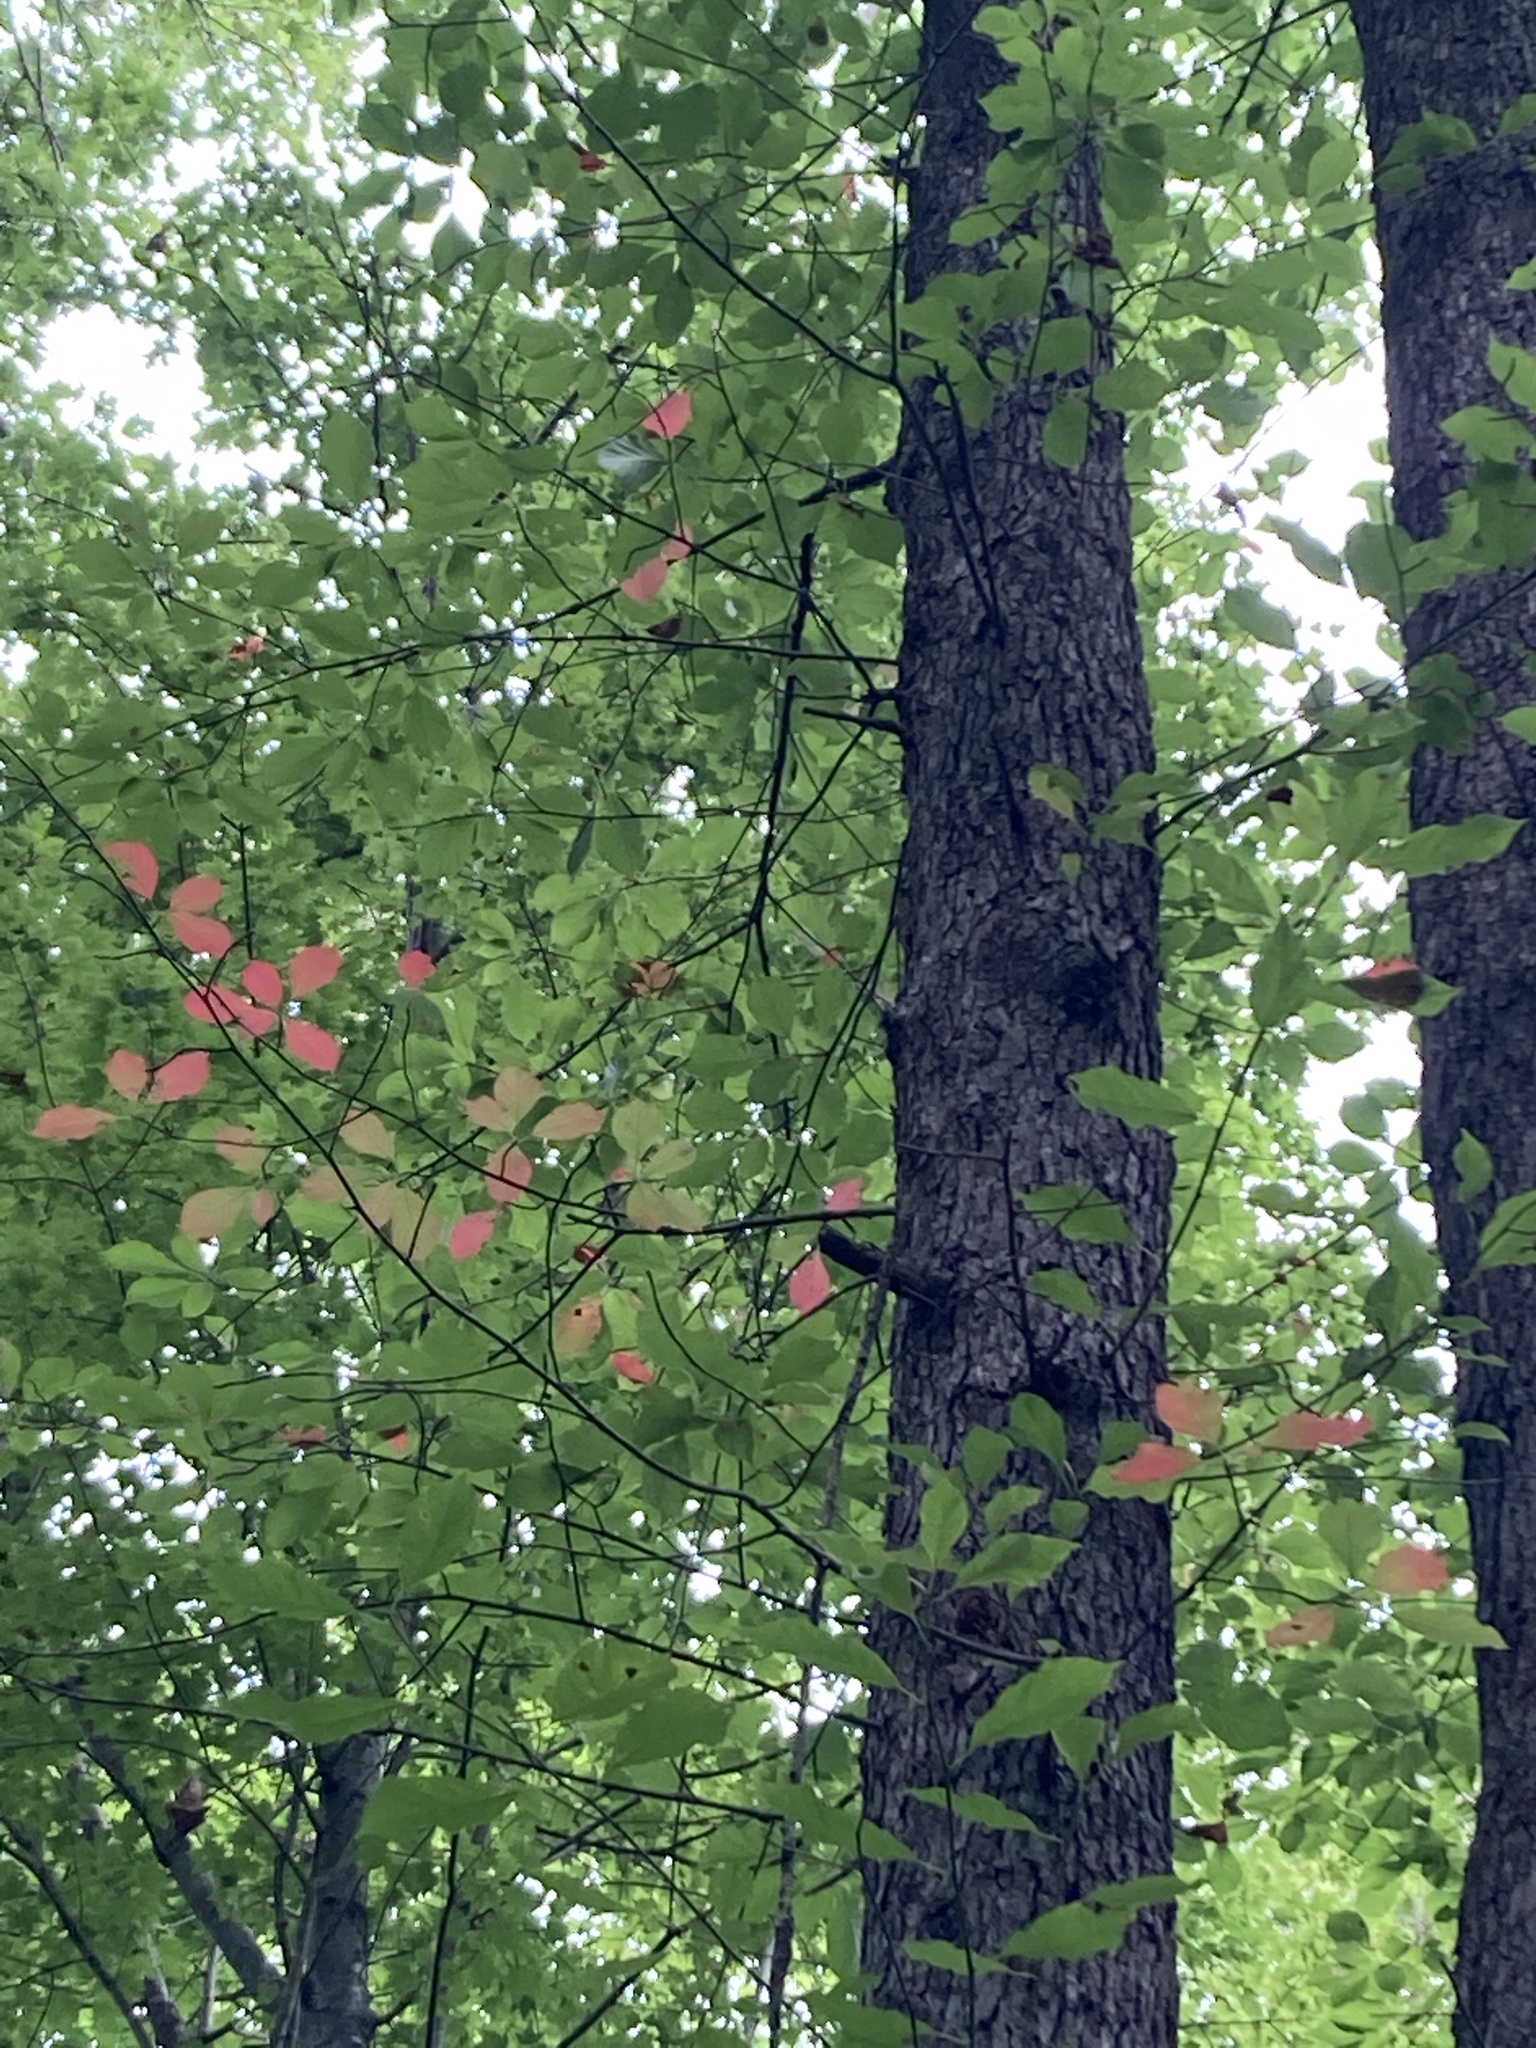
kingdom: Plantae
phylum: Tracheophyta
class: Magnoliopsida
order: Cornales
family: Nyssaceae
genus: Nyssa
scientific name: Nyssa sylvatica
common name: Black tupelo
